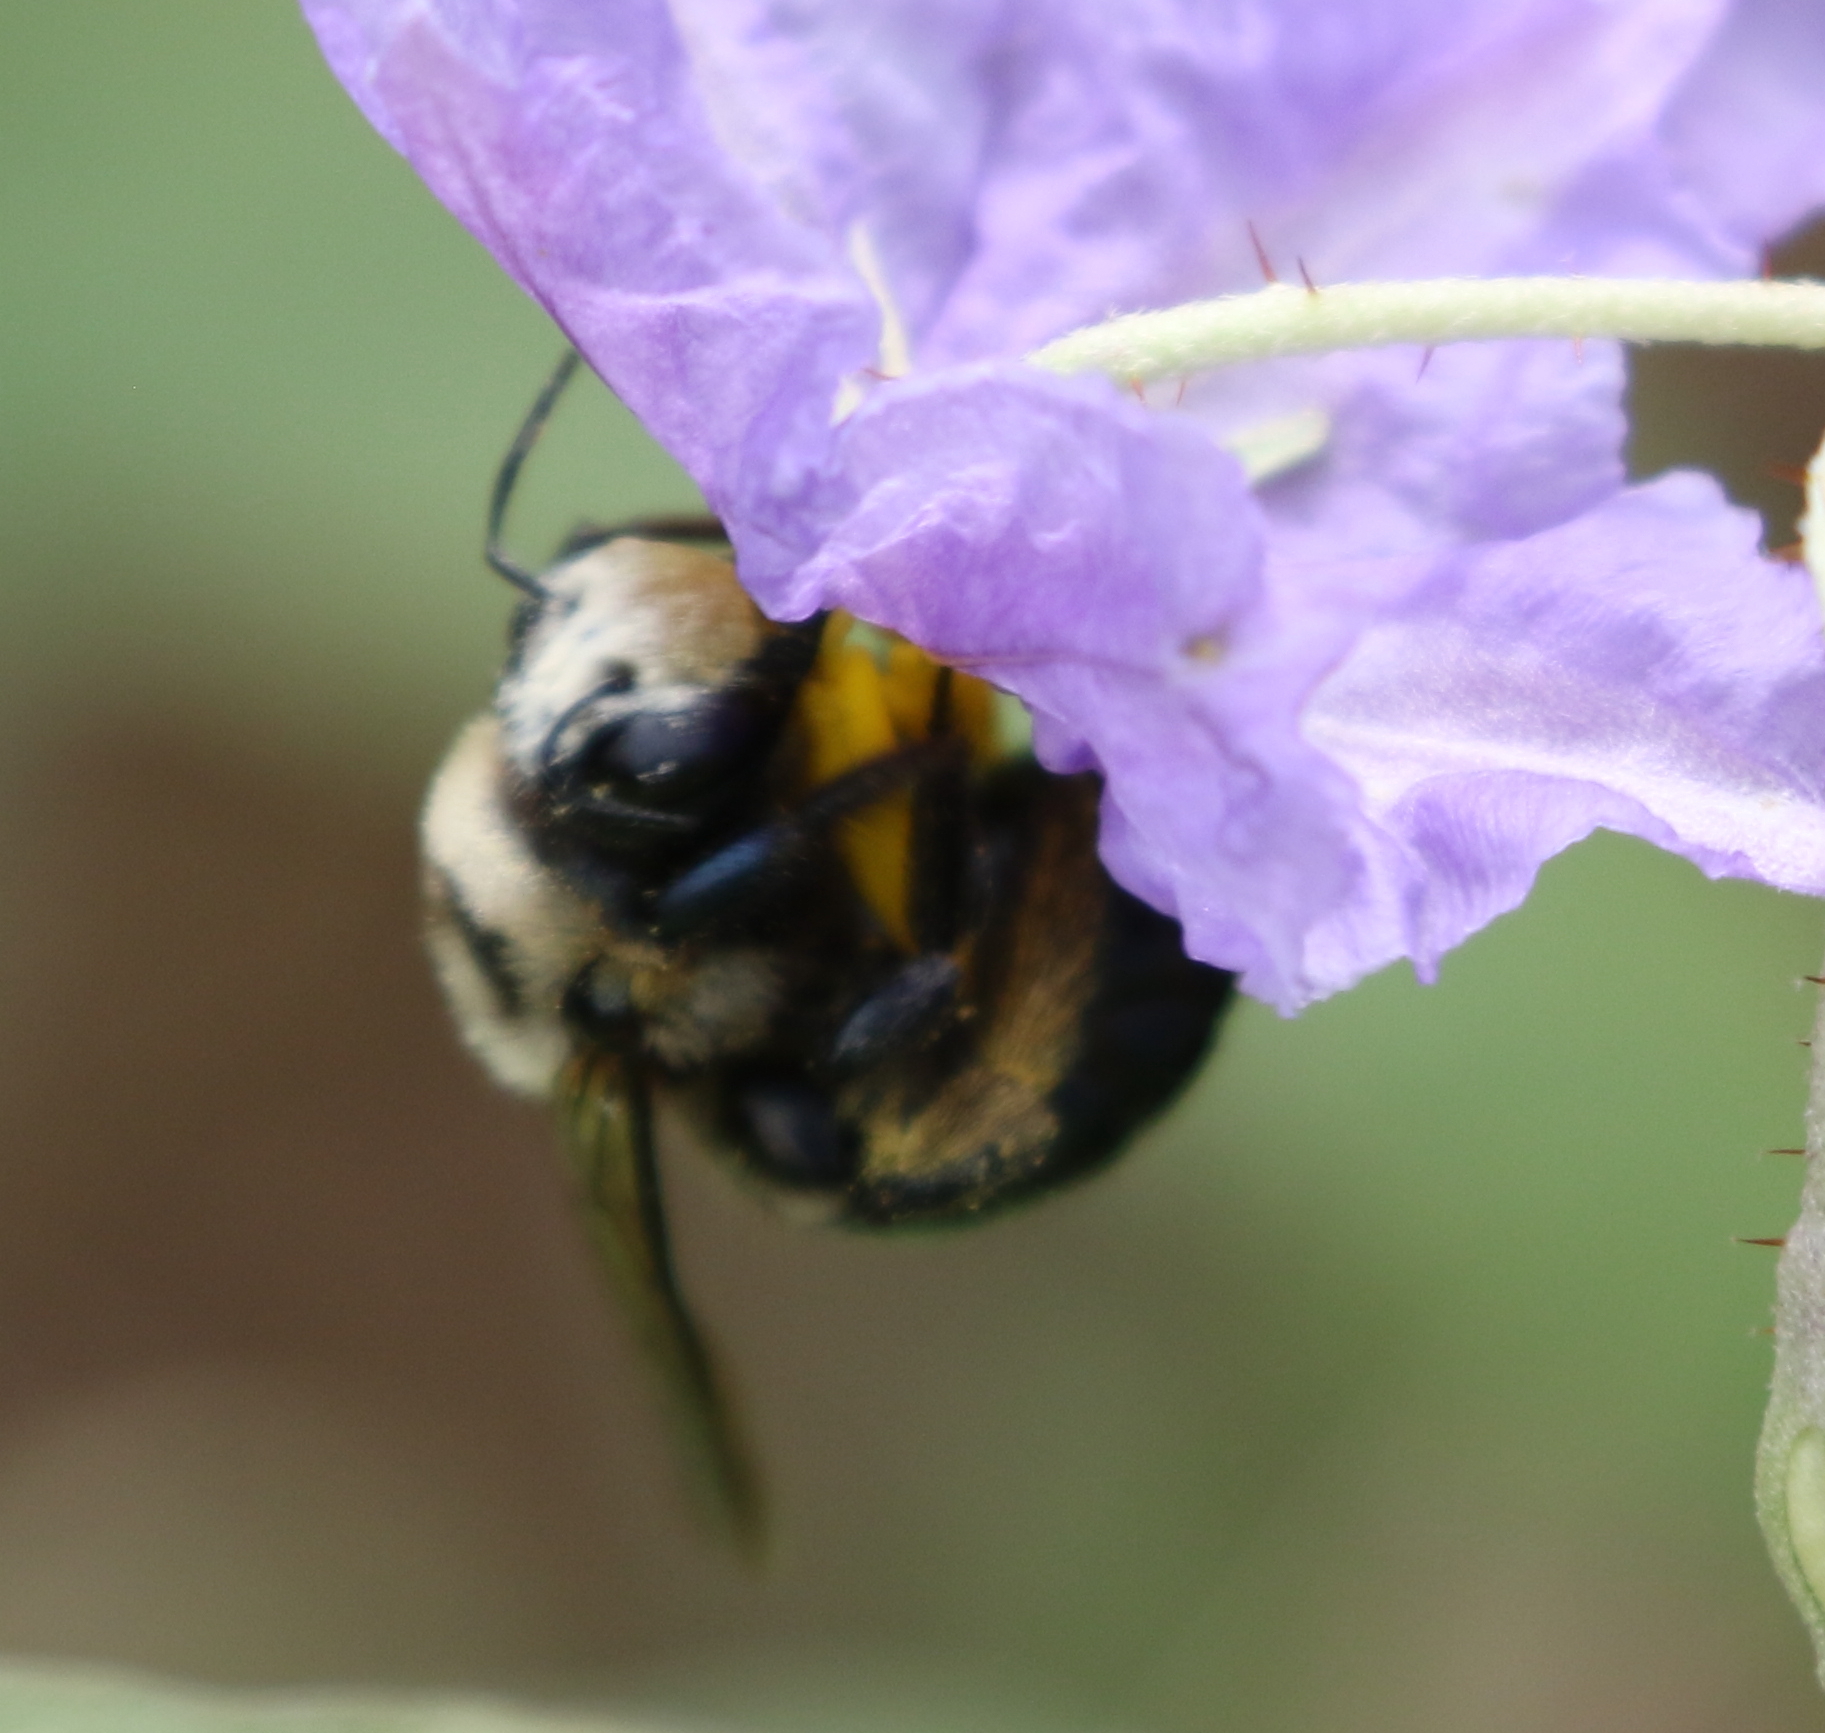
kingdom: Animalia
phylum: Arthropoda
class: Insecta
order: Hymenoptera
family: Apidae
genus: Xylocopa
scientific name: Xylocopa virginica
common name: Carpenter bee
